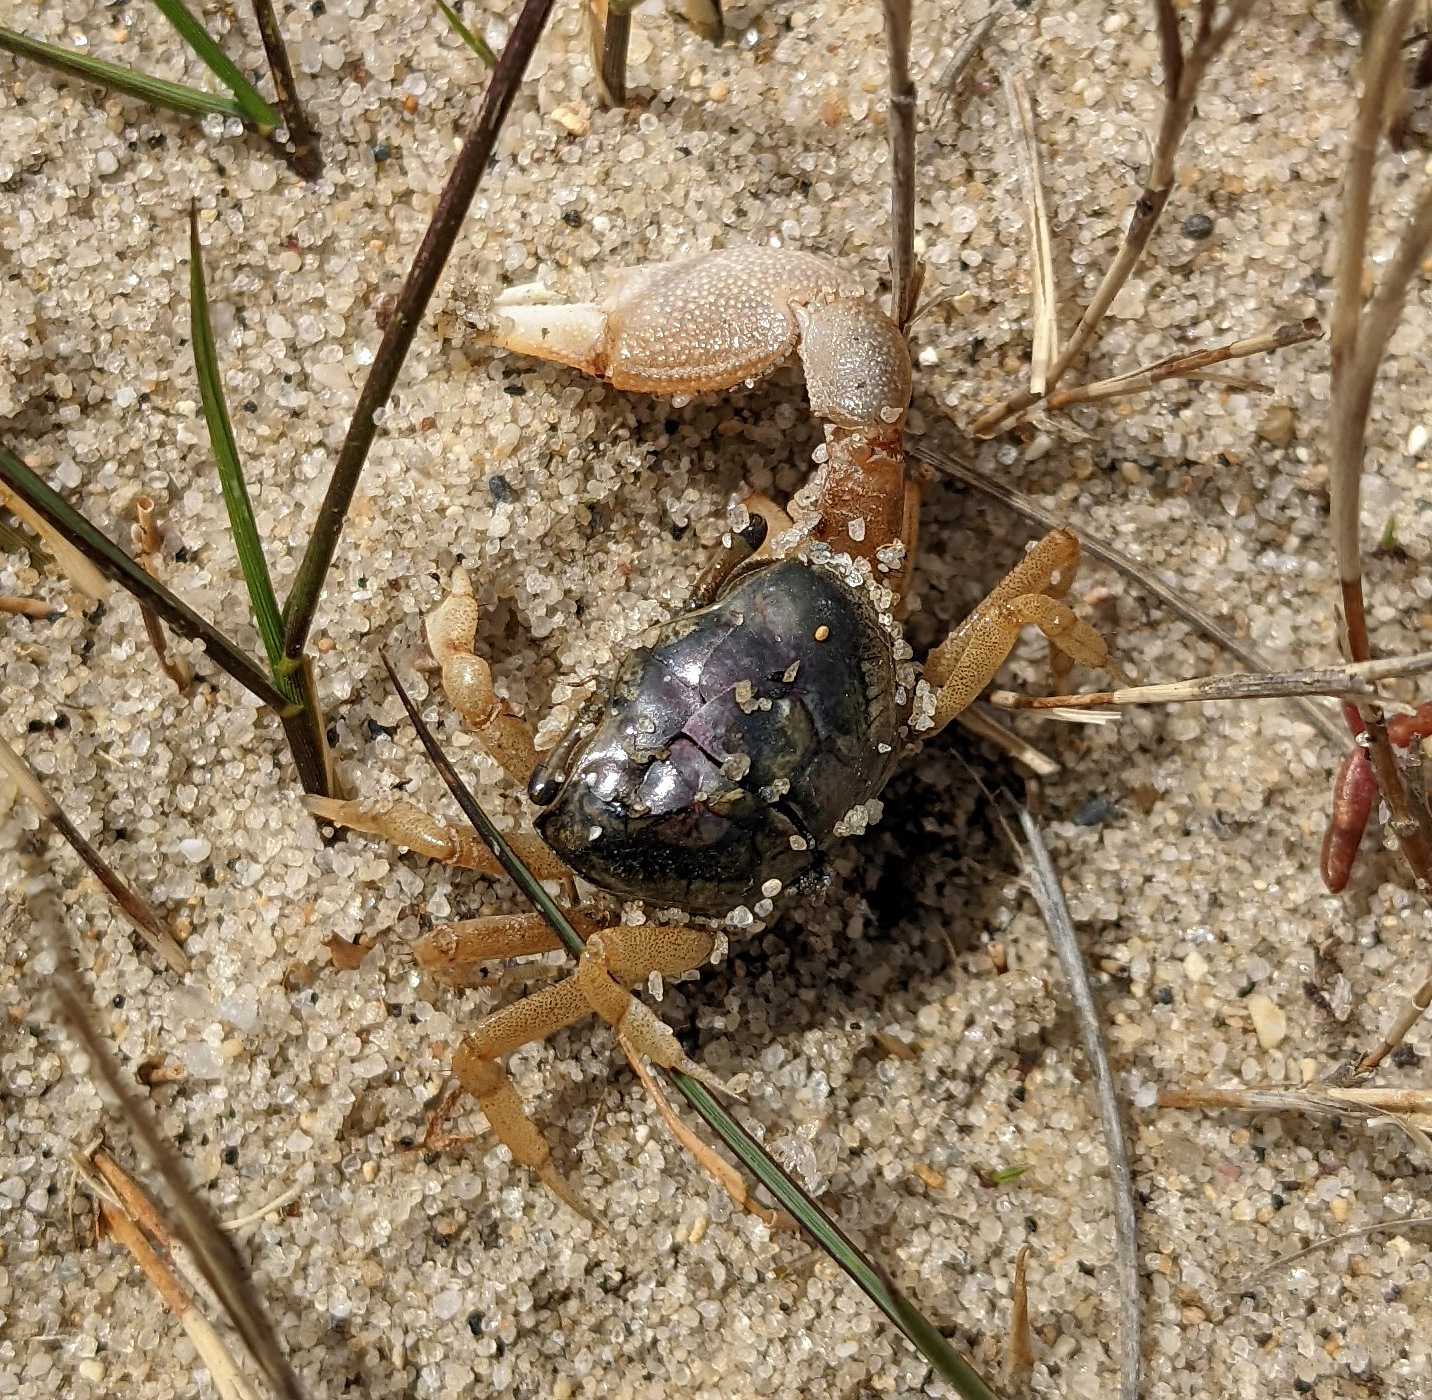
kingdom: Animalia
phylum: Arthropoda
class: Malacostraca
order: Decapoda
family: Ocypodidae
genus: Leptuca
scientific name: Leptuca pugilator
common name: Atlantic sand fiddler crab
